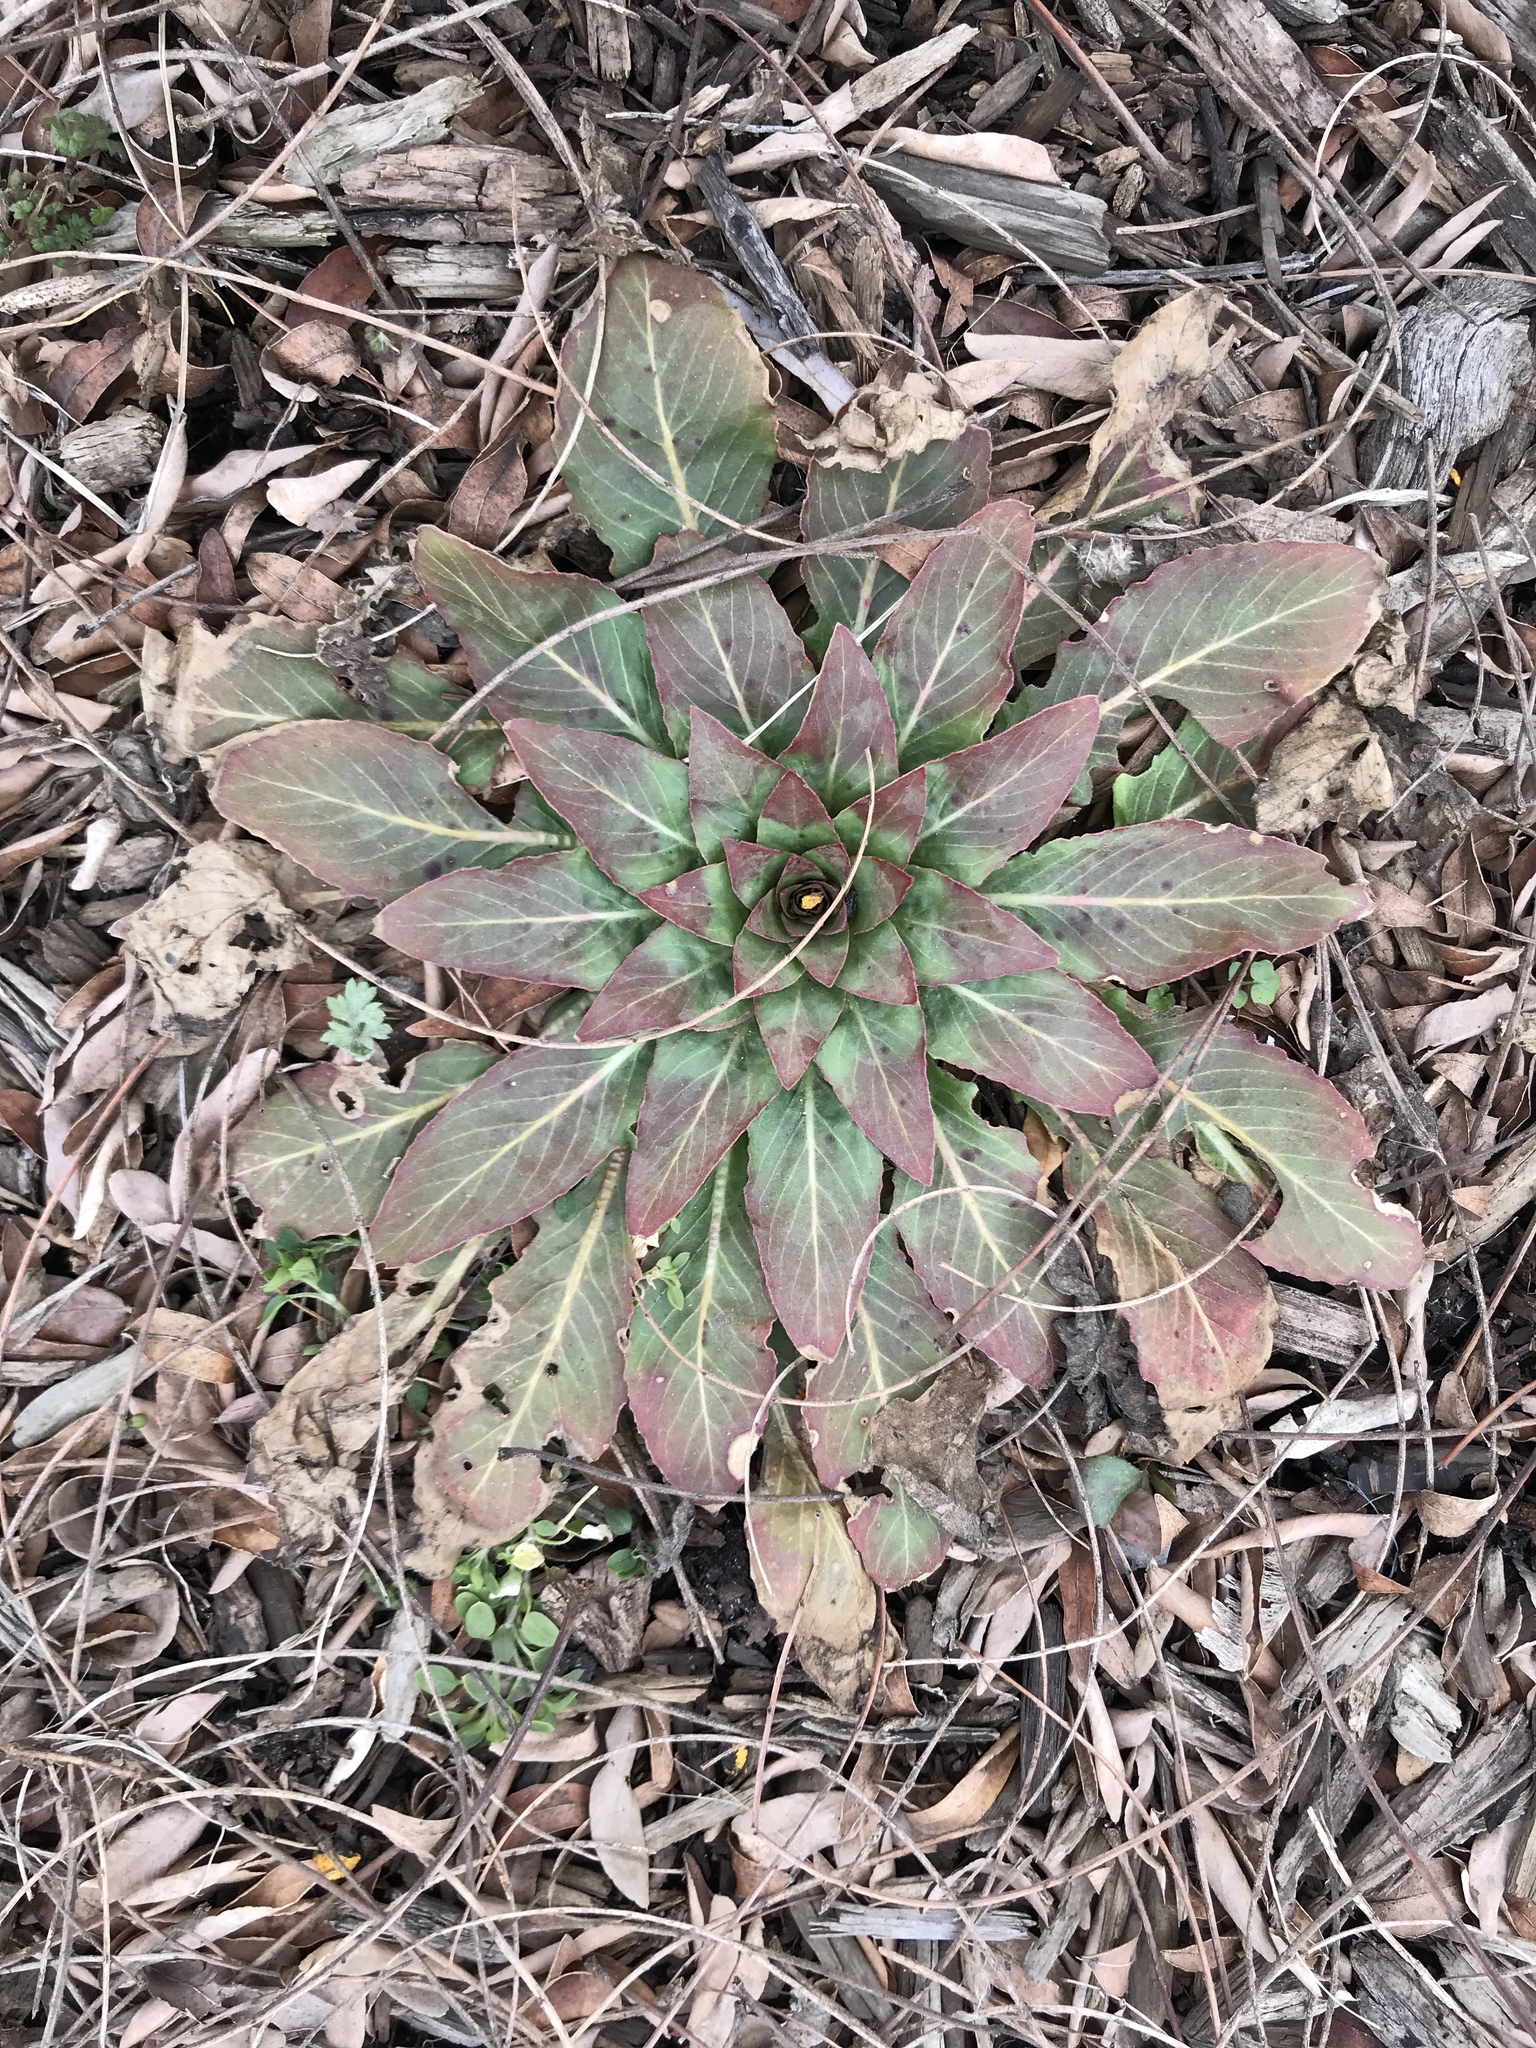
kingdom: Plantae
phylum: Tracheophyta
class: Magnoliopsida
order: Myrtales
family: Onagraceae
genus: Oenothera
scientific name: Oenothera biennis
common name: Common evening-primrose
